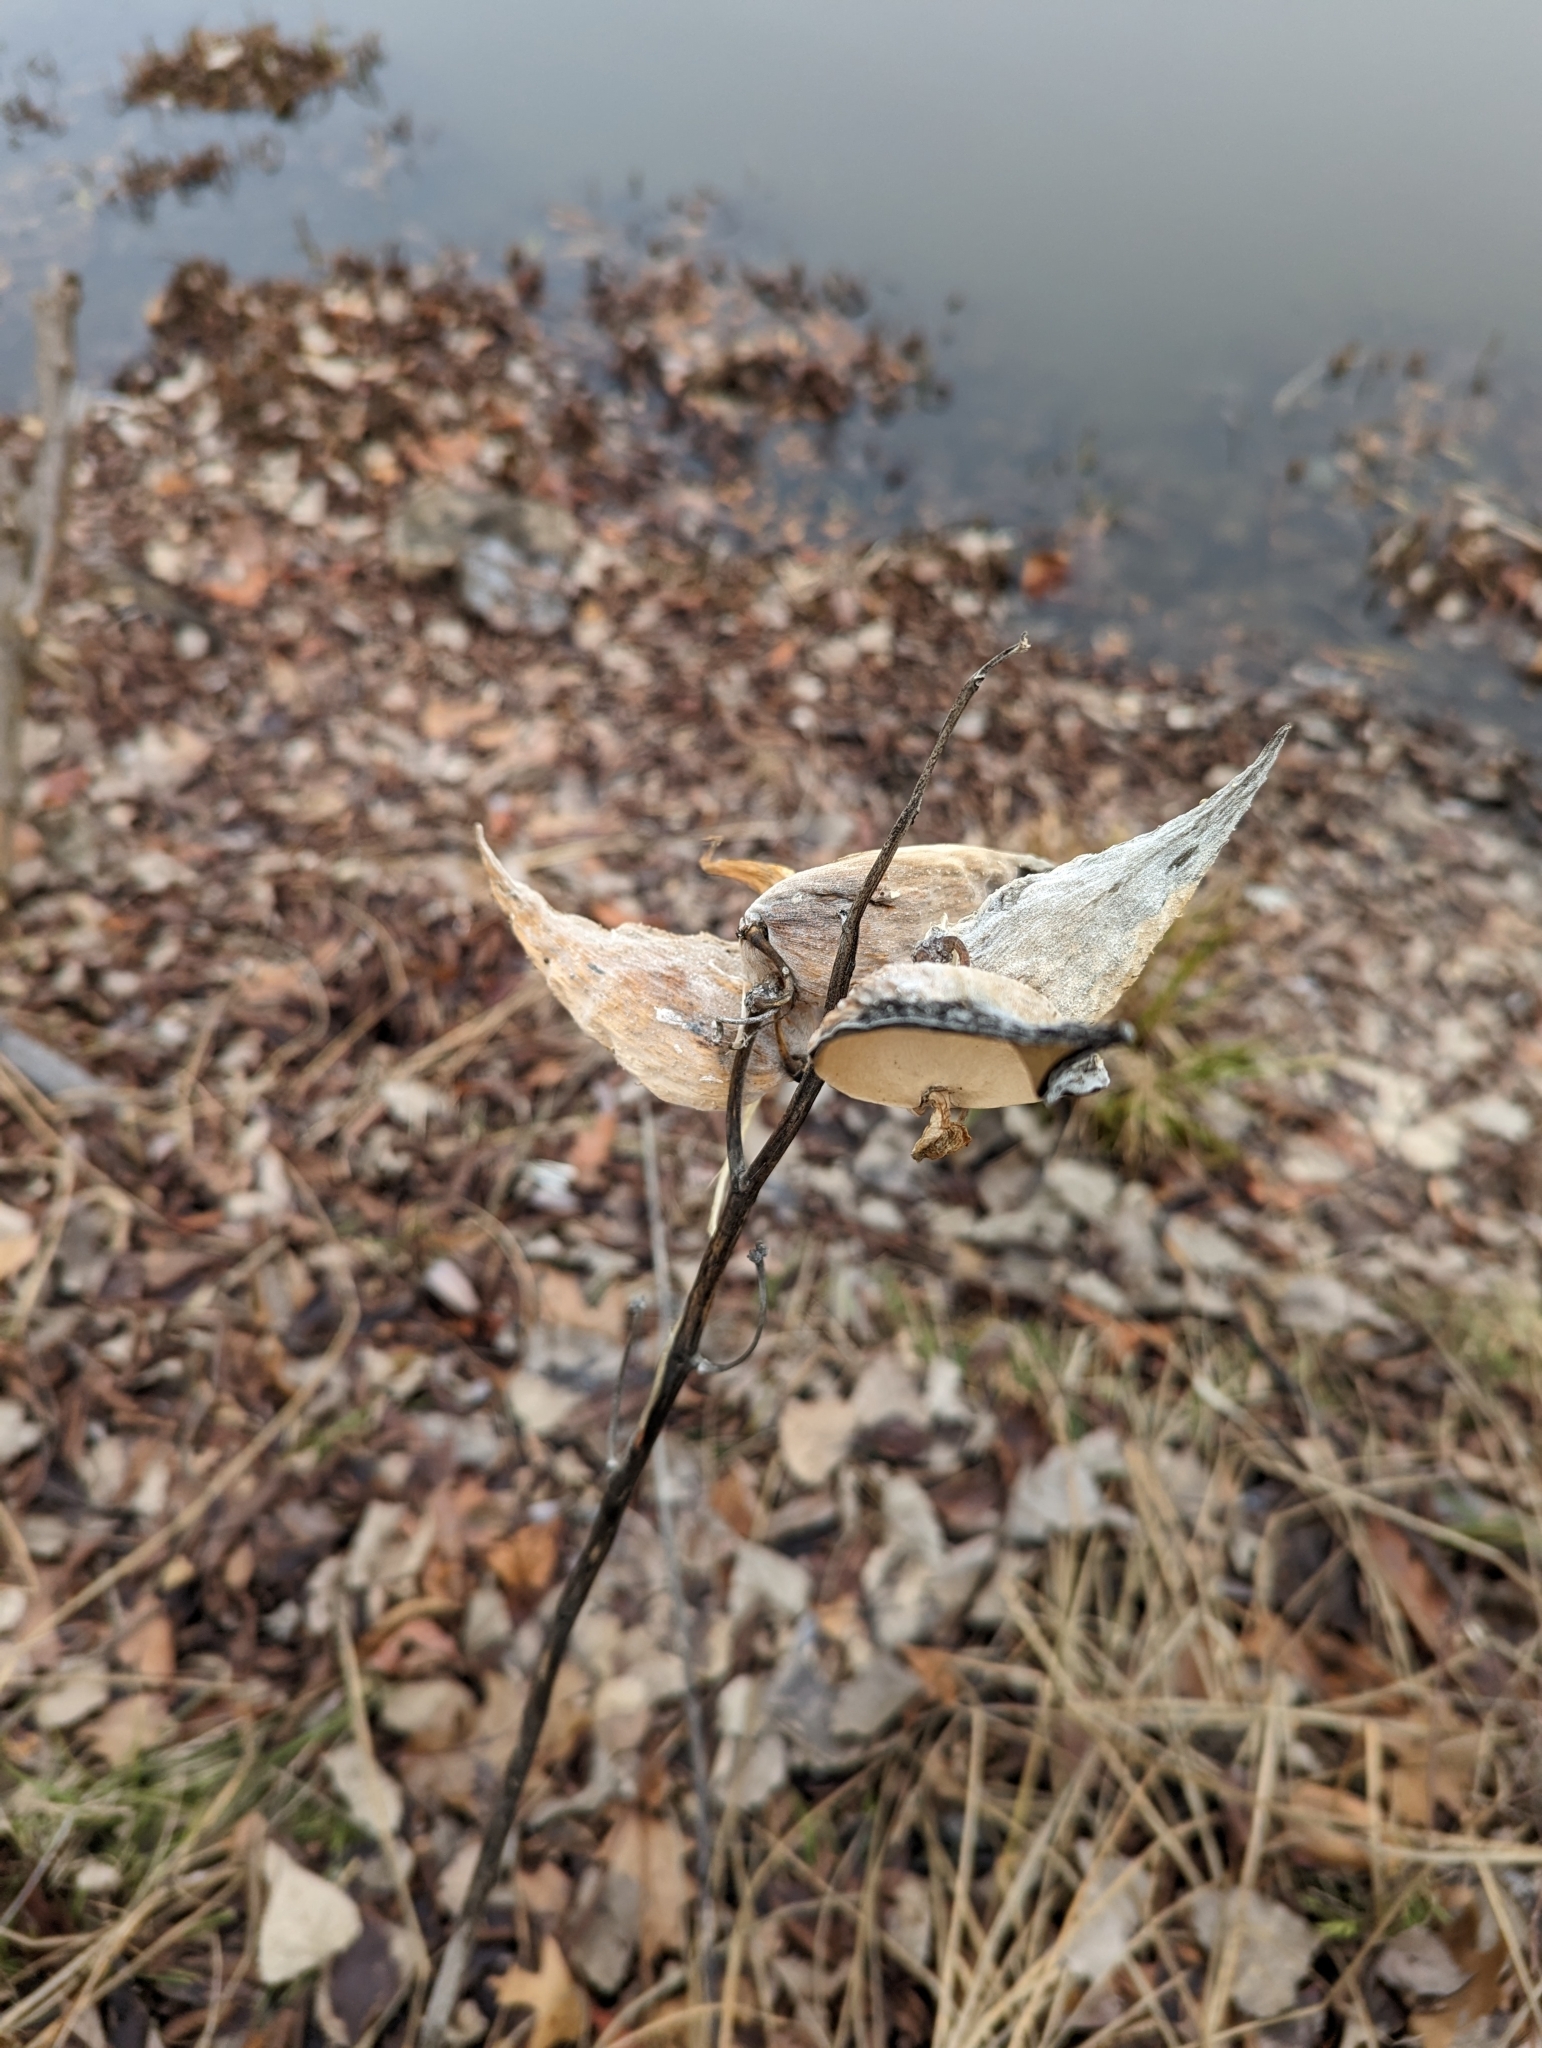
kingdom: Plantae
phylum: Tracheophyta
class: Magnoliopsida
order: Gentianales
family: Apocynaceae
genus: Asclepias
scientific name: Asclepias incarnata
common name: Swamp milkweed
